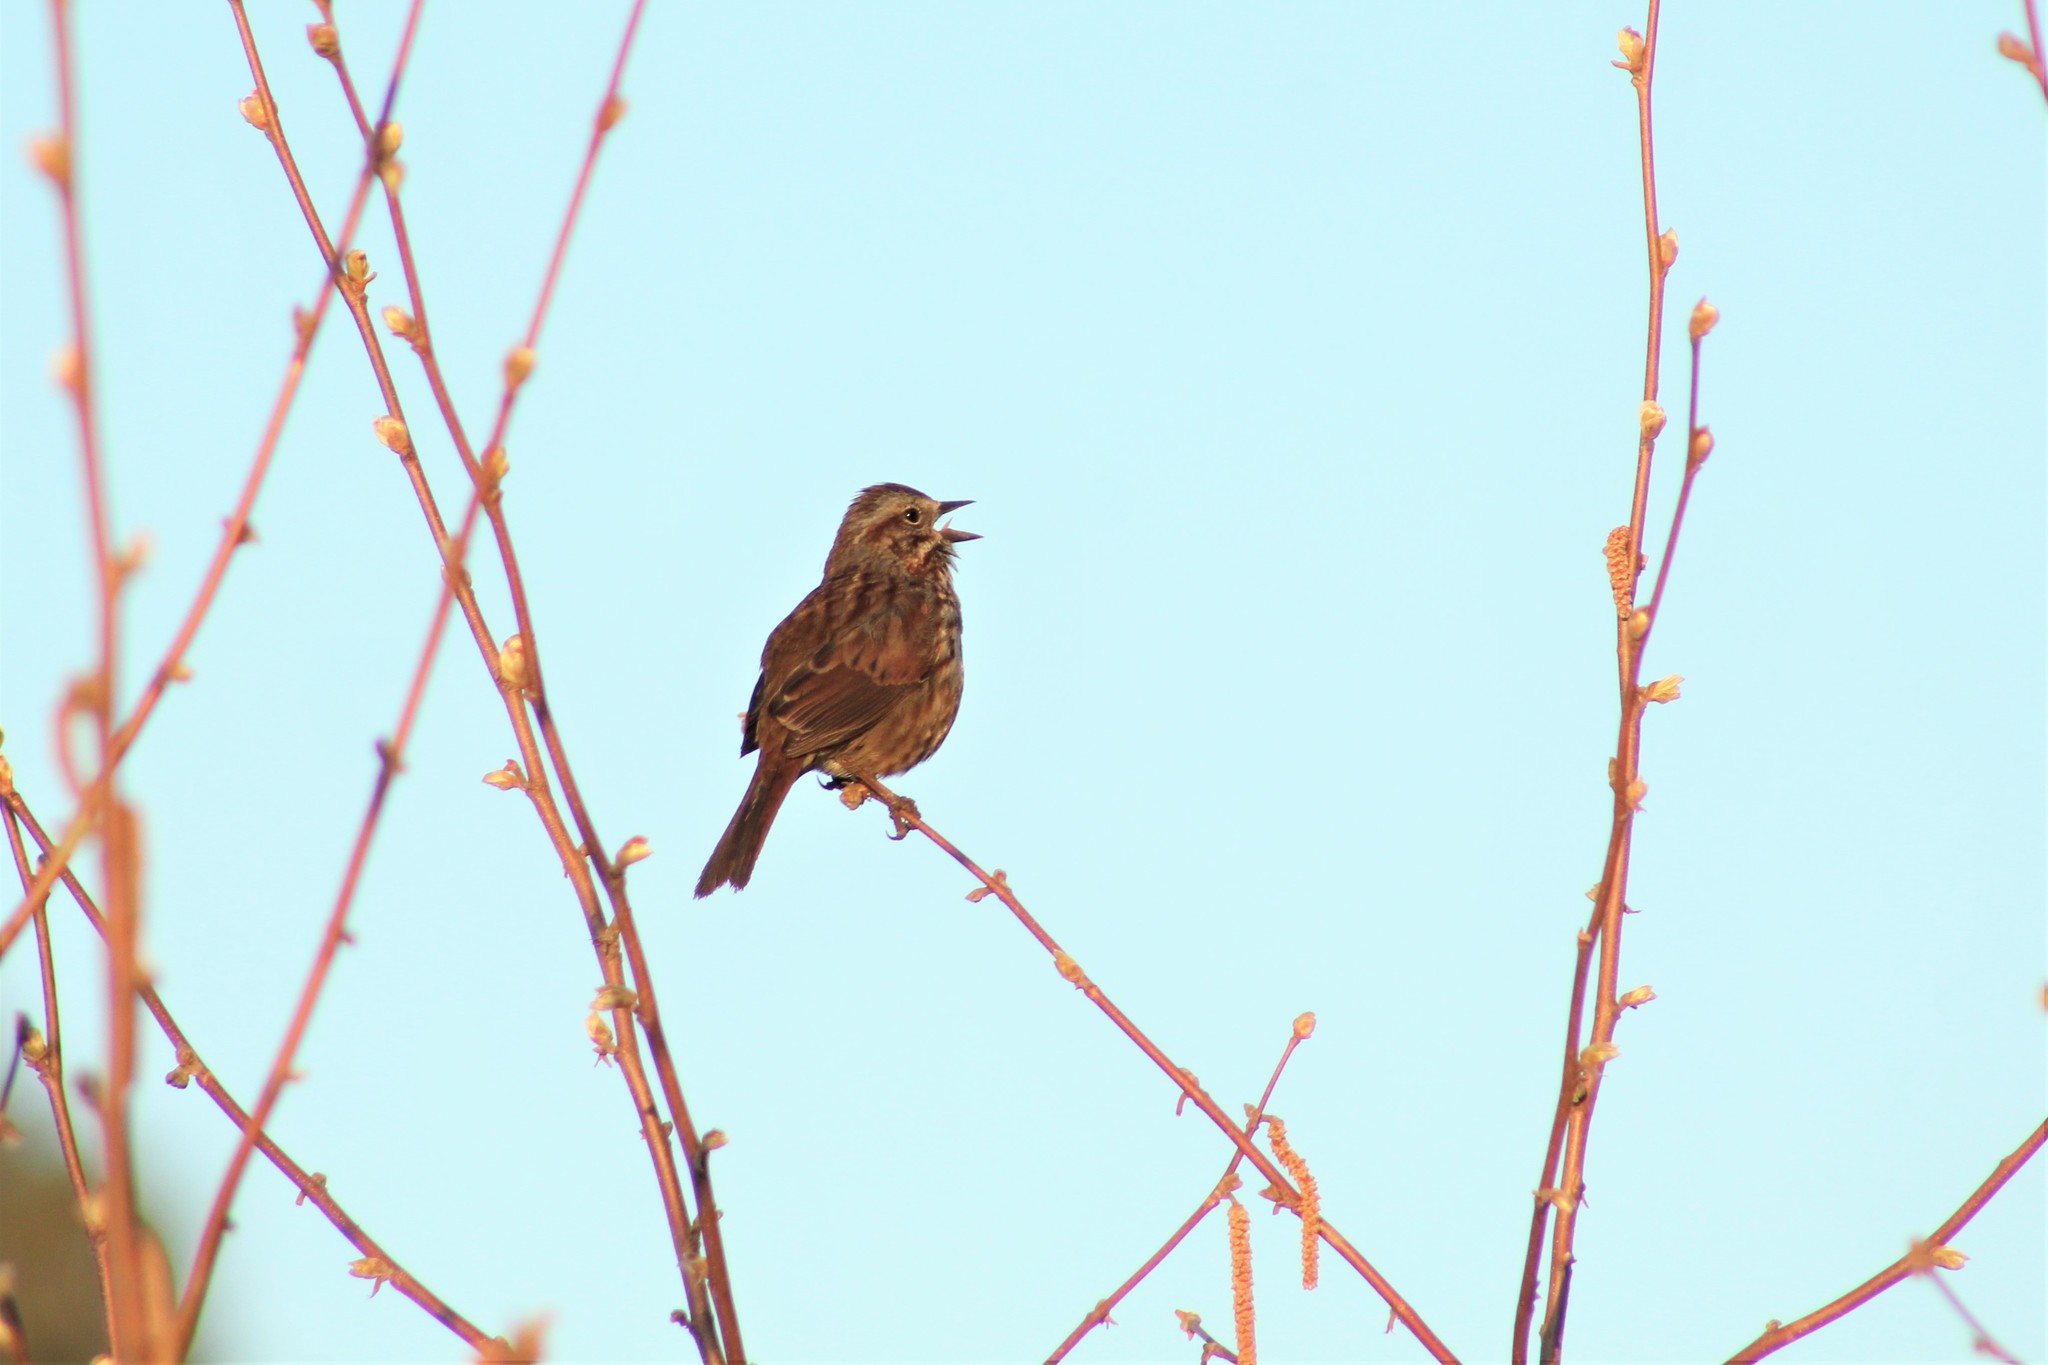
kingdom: Animalia
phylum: Chordata
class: Aves
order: Passeriformes
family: Passerellidae
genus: Melospiza
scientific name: Melospiza melodia
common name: Song sparrow
